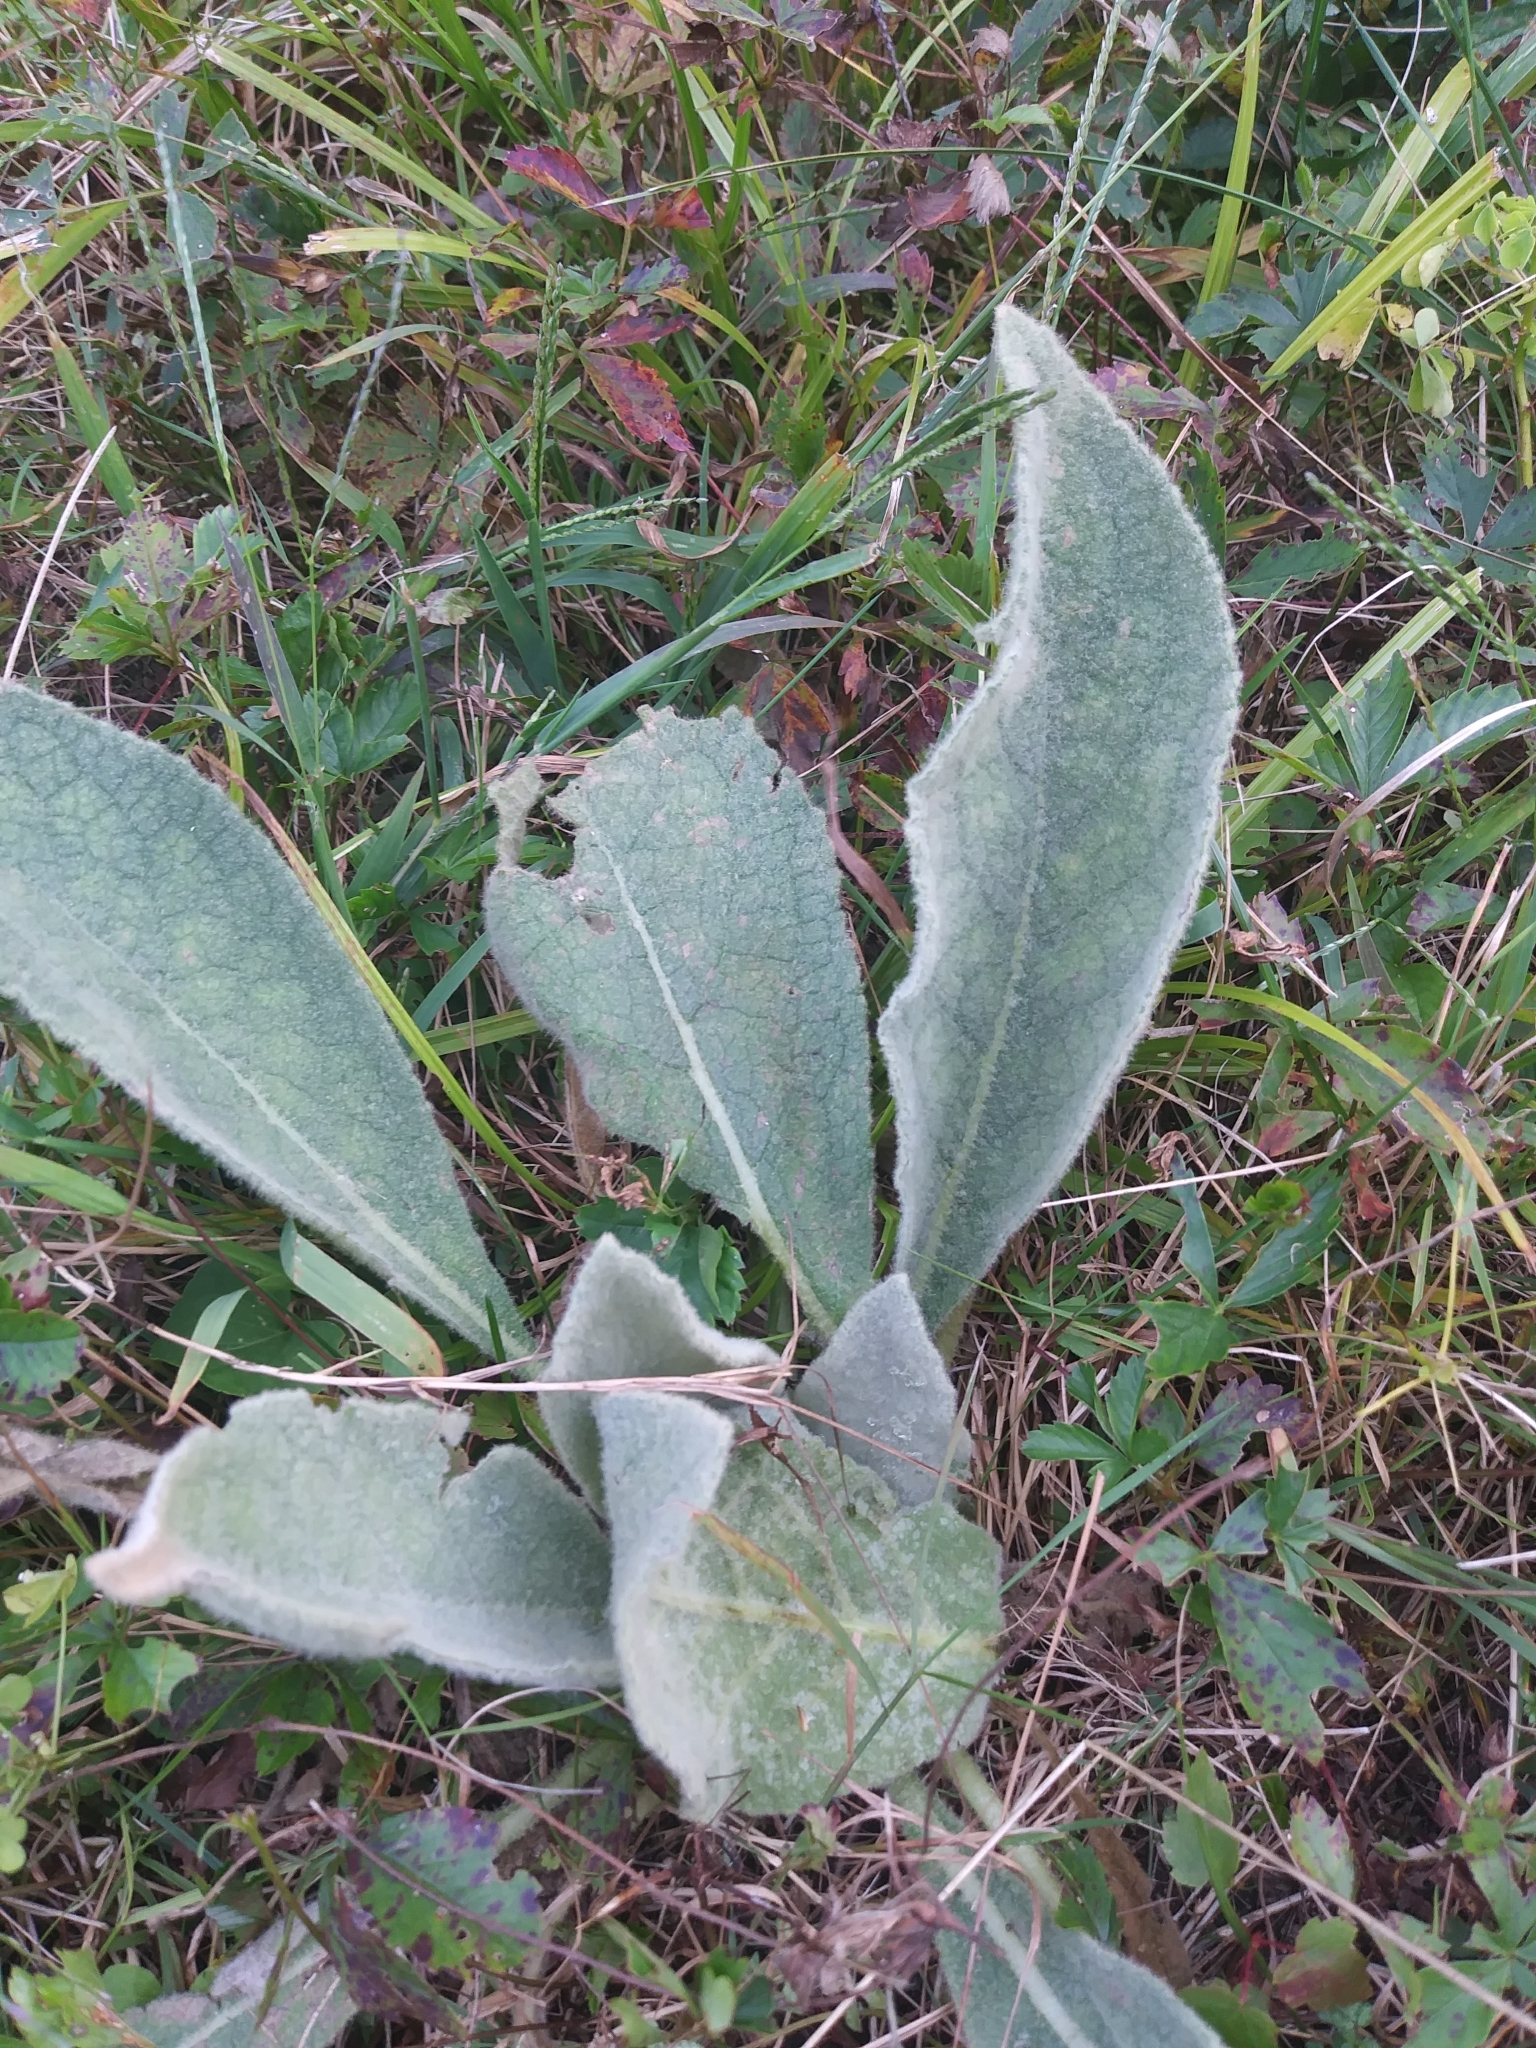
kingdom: Plantae
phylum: Tracheophyta
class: Magnoliopsida
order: Lamiales
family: Scrophulariaceae
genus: Verbascum
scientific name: Verbascum thapsus
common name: Common mullein
